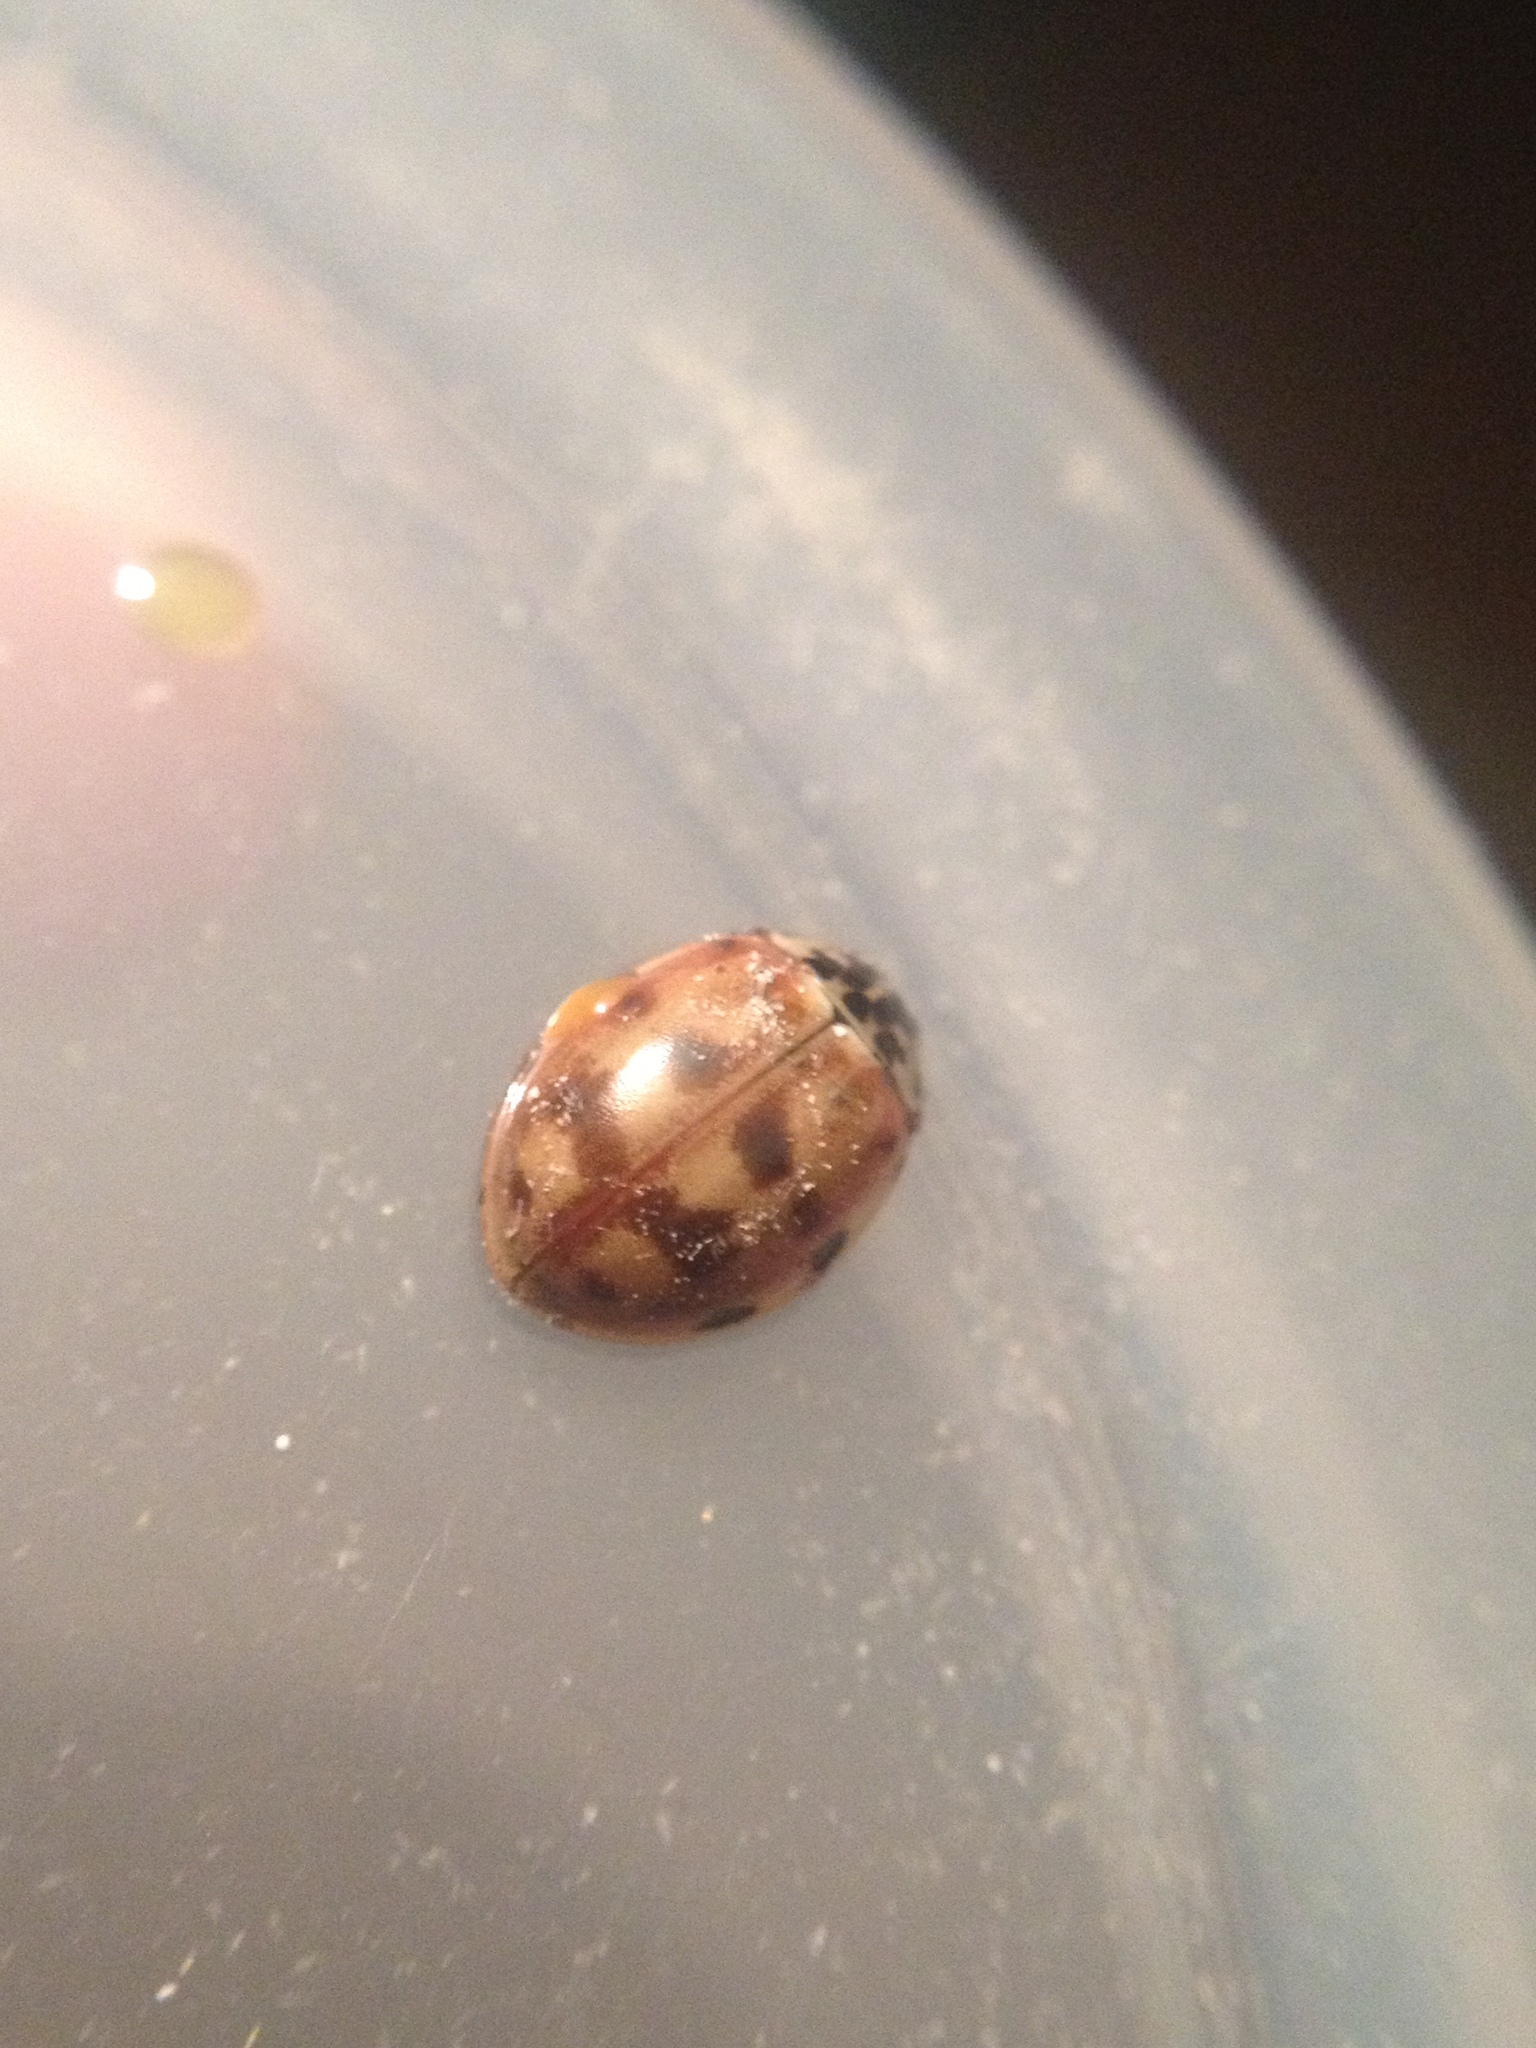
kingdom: Animalia
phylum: Arthropoda
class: Insecta
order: Coleoptera
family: Coccinellidae
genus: Harmonia
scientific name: Harmonia quadripunctata
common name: Cream-streaked ladybird
